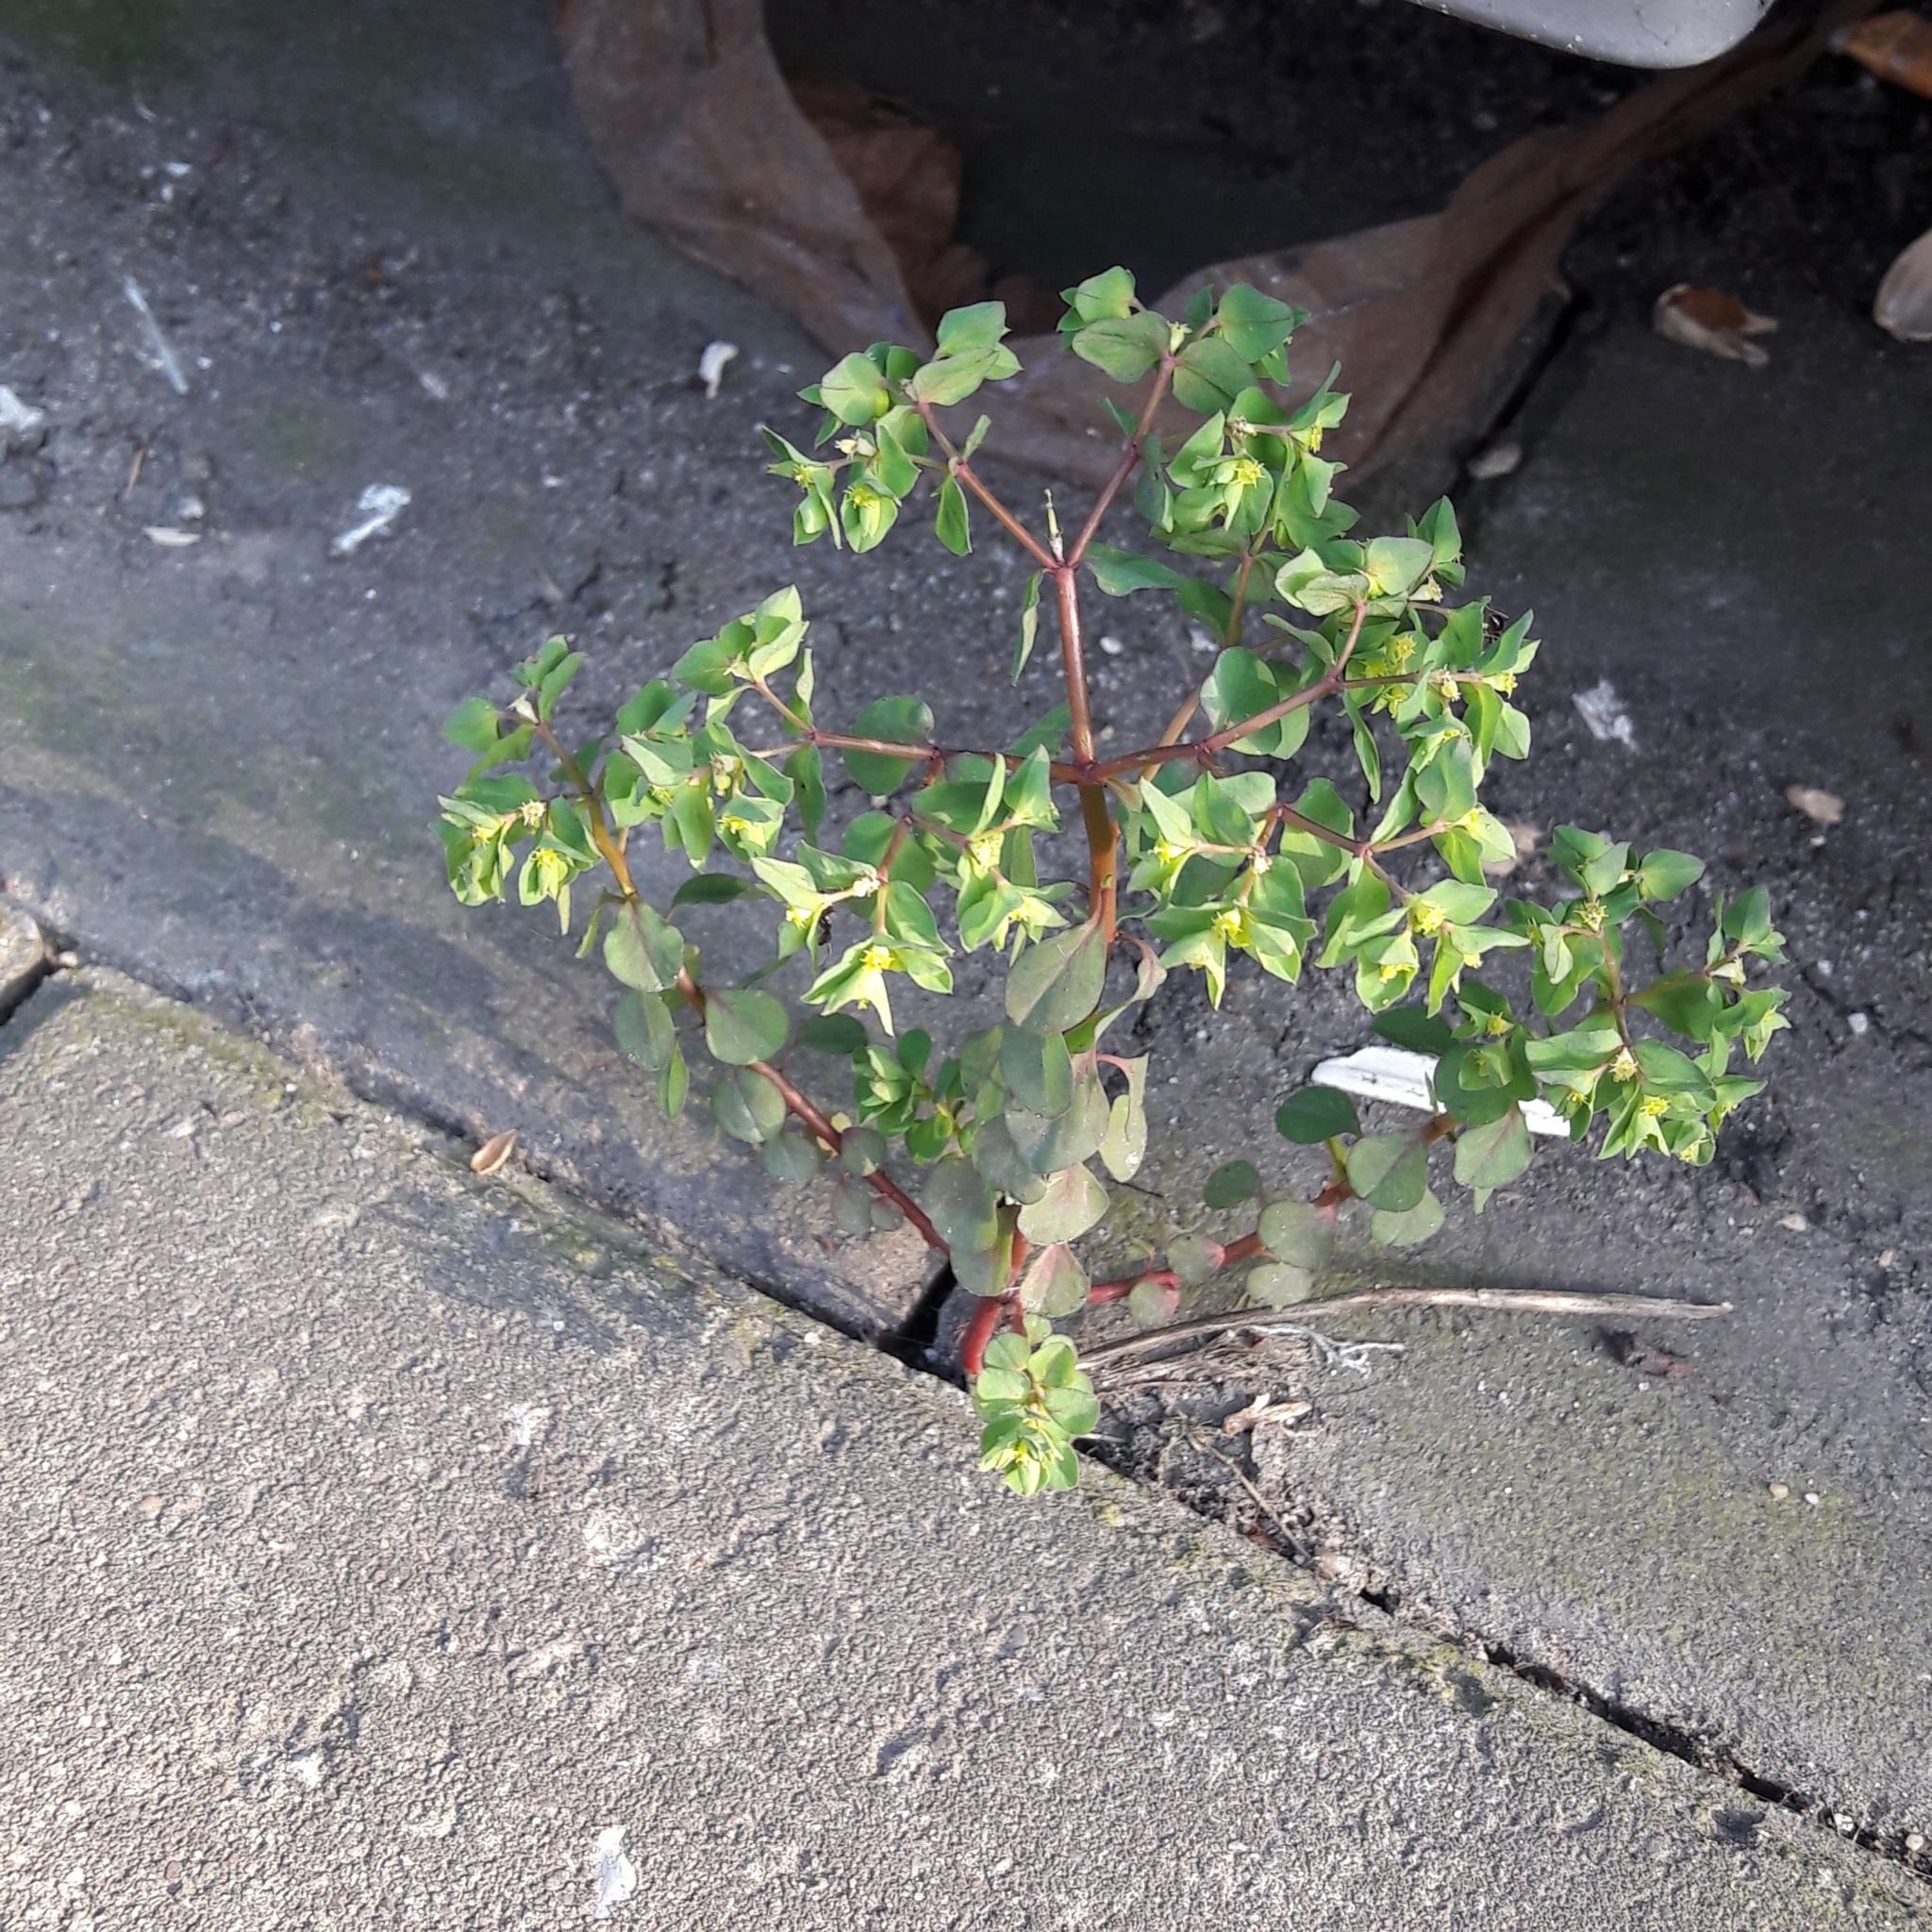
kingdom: Plantae
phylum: Tracheophyta
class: Magnoliopsida
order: Malpighiales
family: Euphorbiaceae
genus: Euphorbia
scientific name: Euphorbia peplus
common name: Petty spurge
